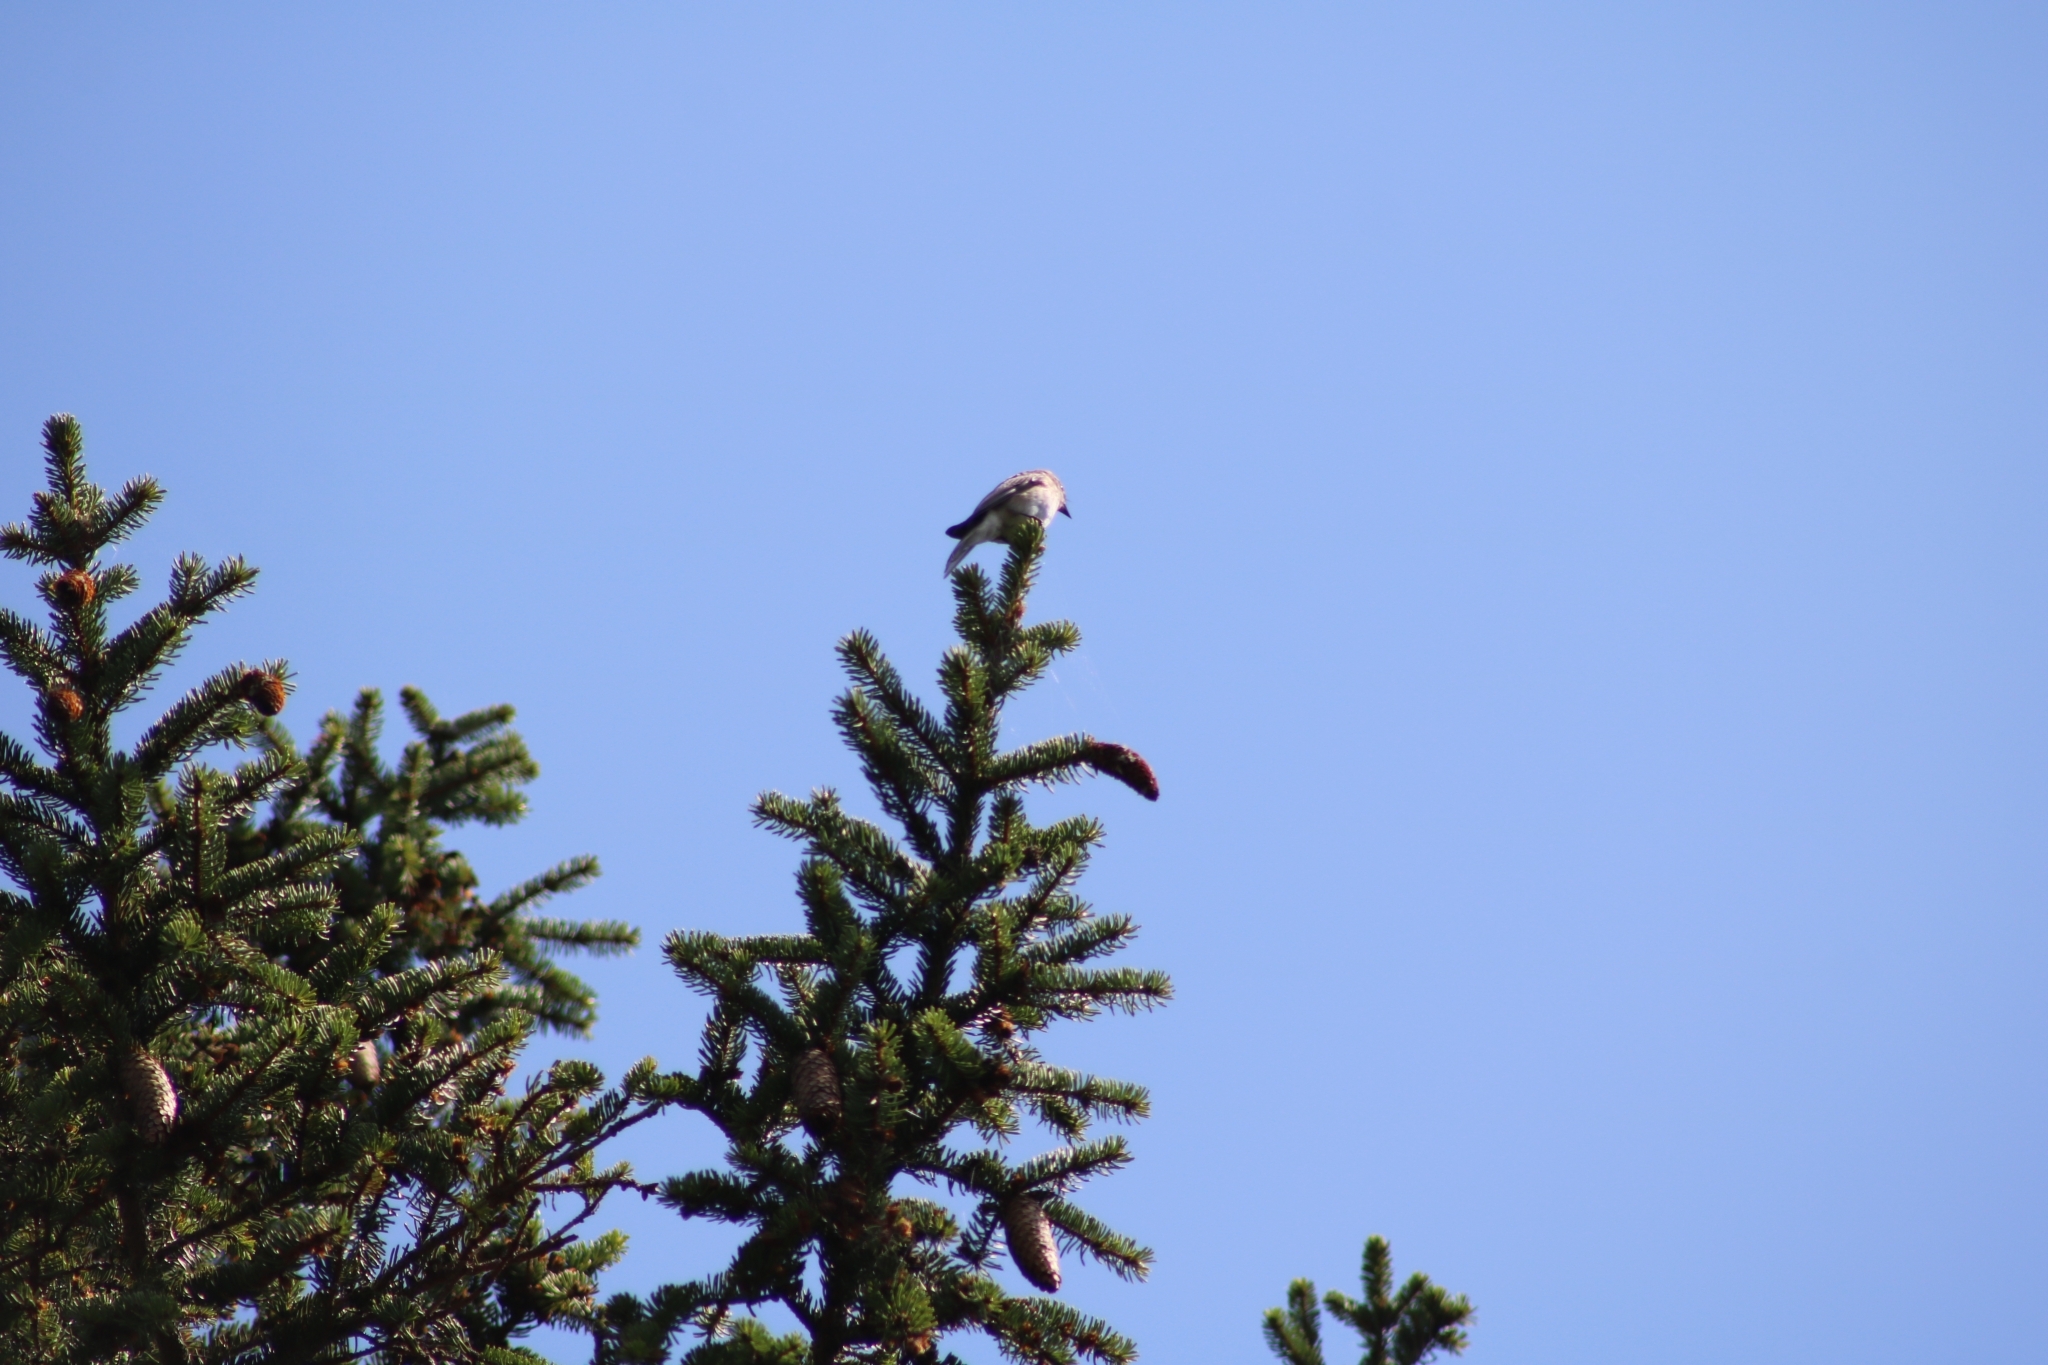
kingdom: Animalia
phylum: Chordata
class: Aves
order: Passeriformes
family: Muscicapidae
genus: Muscicapa
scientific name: Muscicapa striata
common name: Spotted flycatcher
